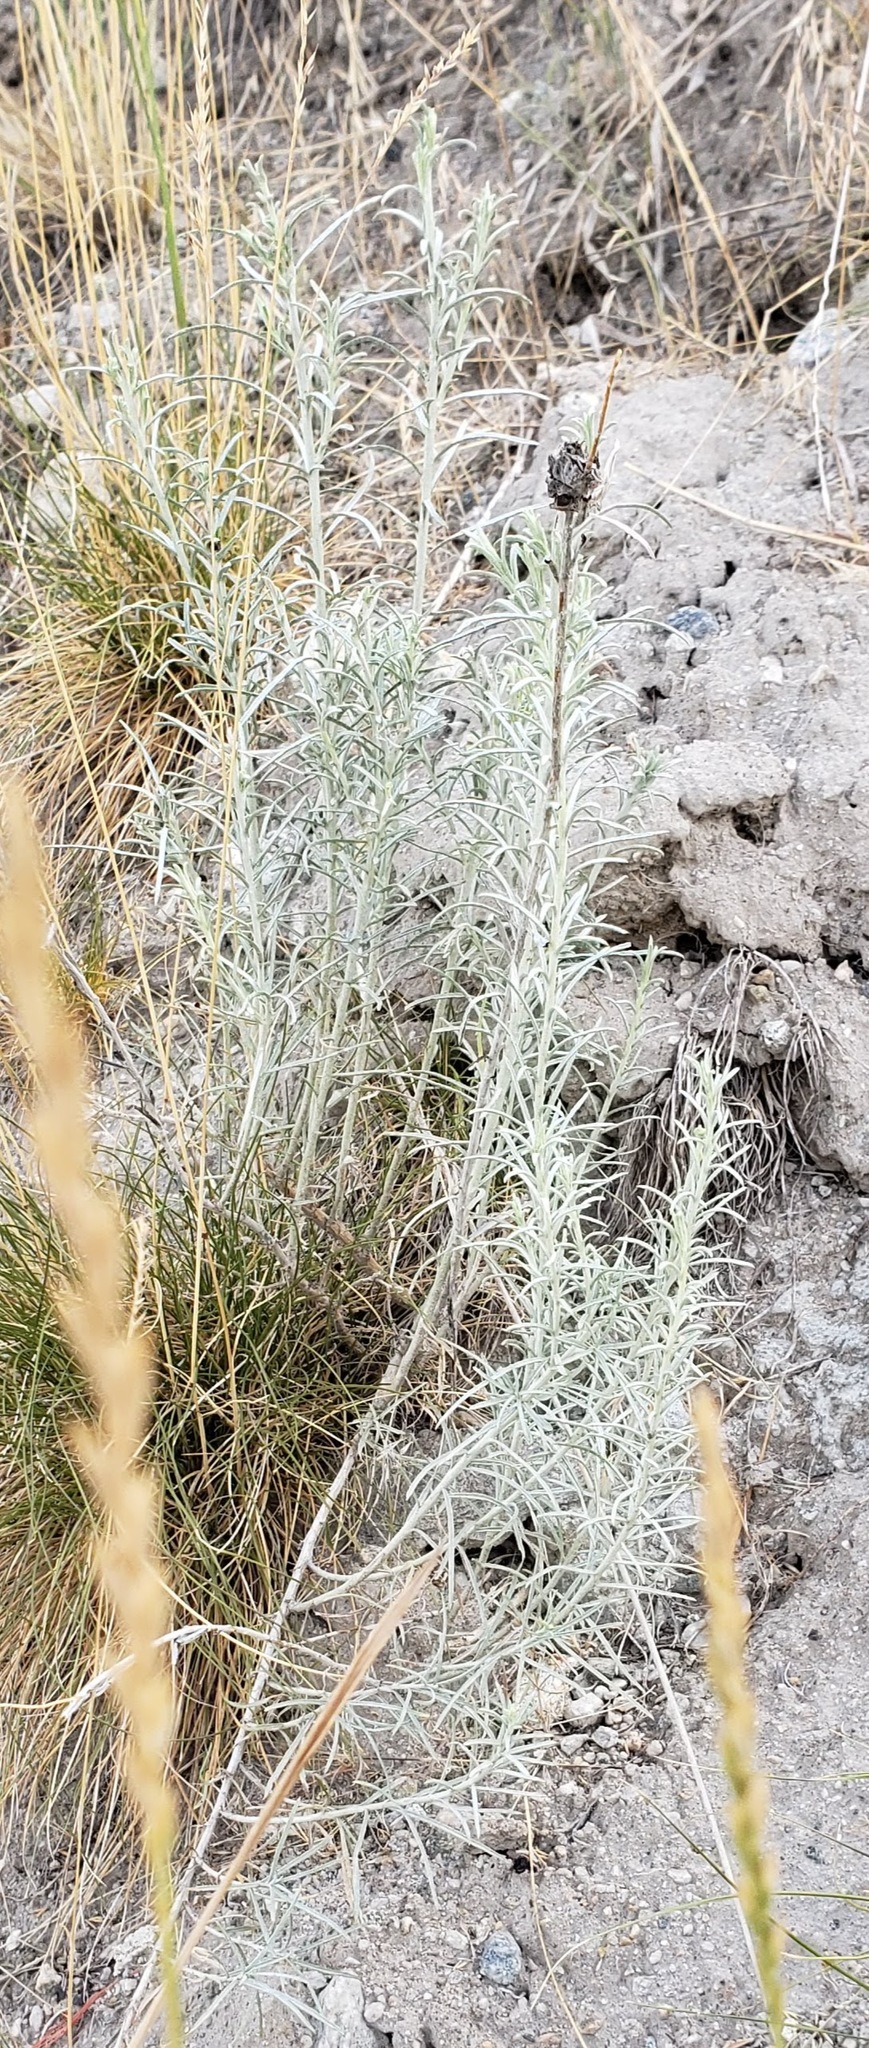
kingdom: Plantae
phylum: Tracheophyta
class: Magnoliopsida
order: Asterales
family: Asteraceae
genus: Ericameria
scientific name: Ericameria nauseosa
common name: Rubber rabbitbrush
